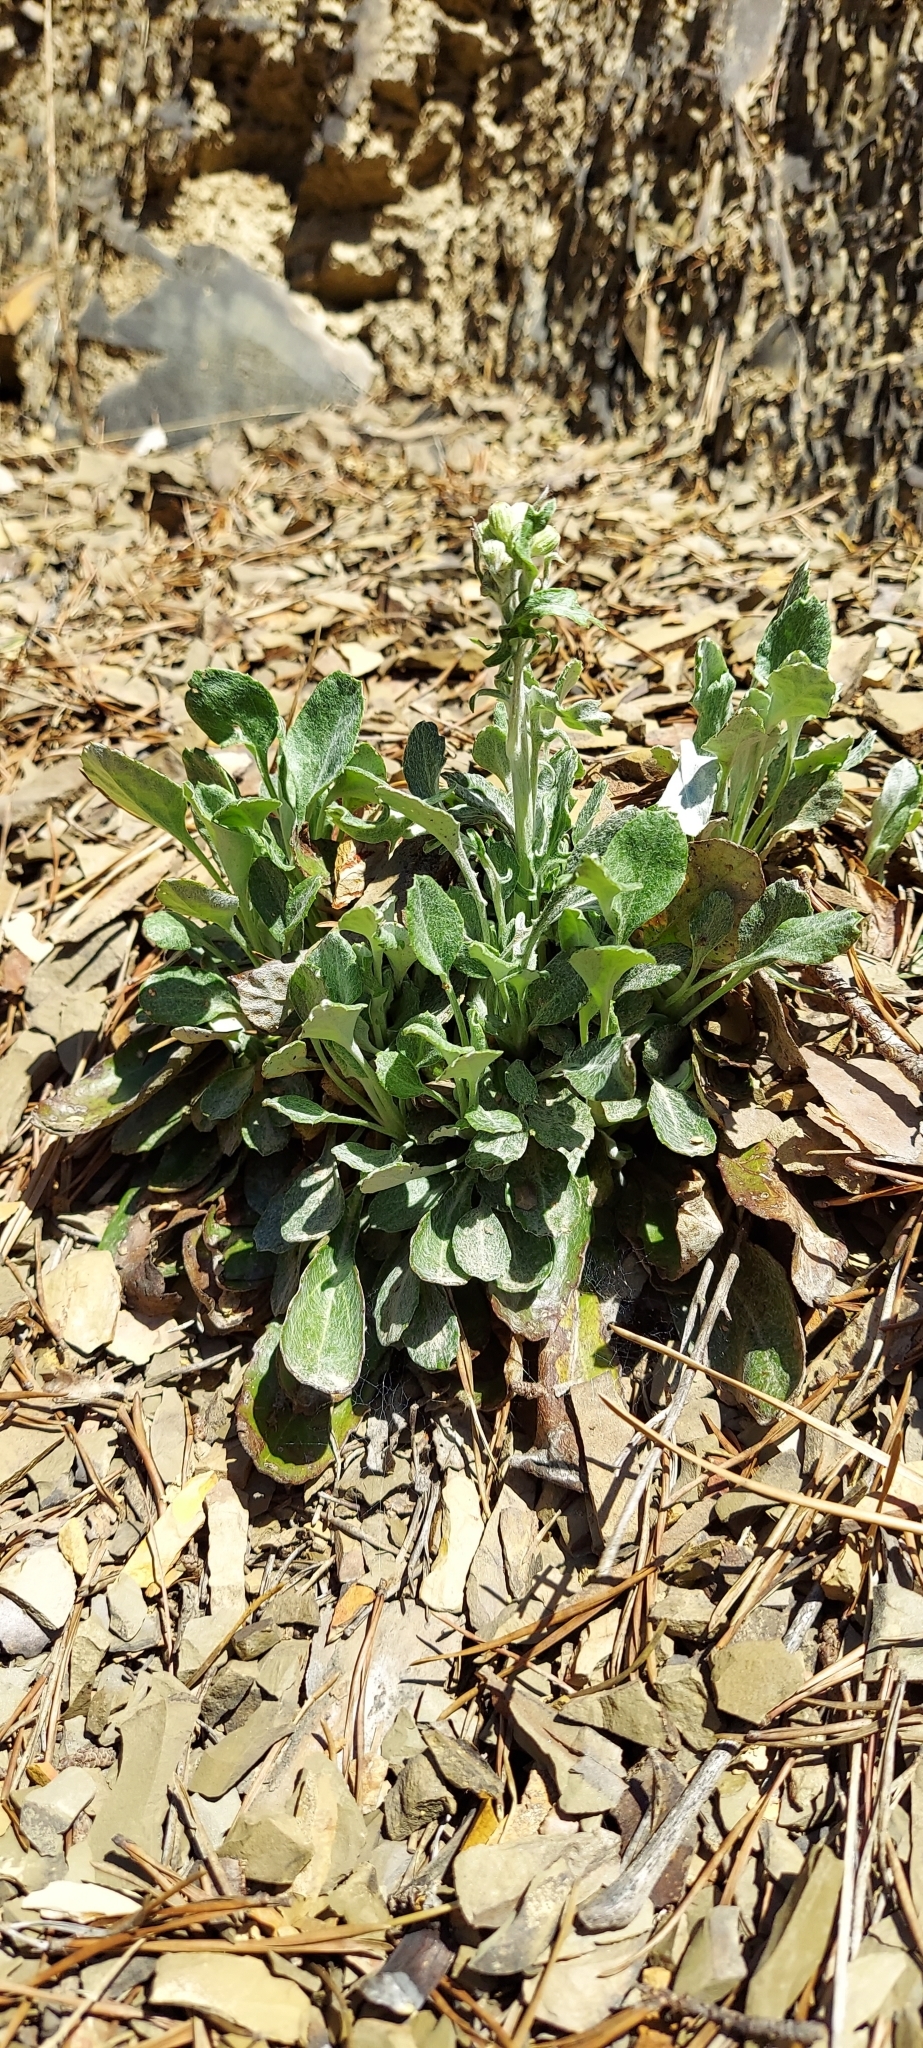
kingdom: Plantae
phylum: Tracheophyta
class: Magnoliopsida
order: Asterales
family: Asteraceae
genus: Packera
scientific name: Packera antennariifolia
